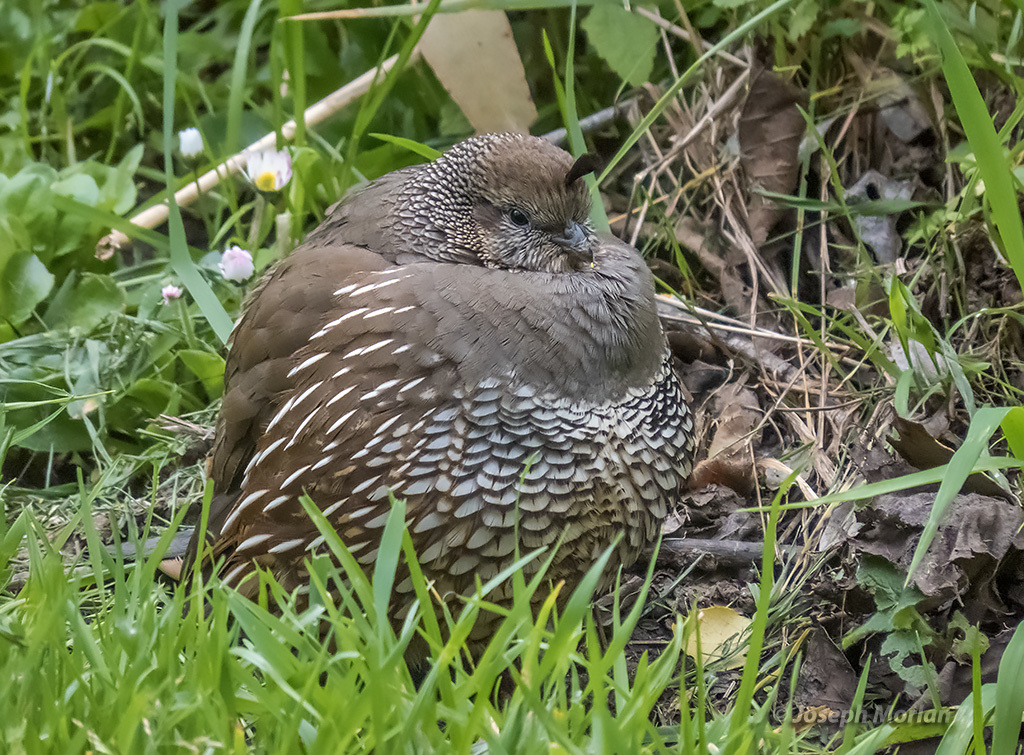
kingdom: Animalia
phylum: Chordata
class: Aves
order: Galliformes
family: Odontophoridae
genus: Callipepla
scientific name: Callipepla californica
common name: California quail
